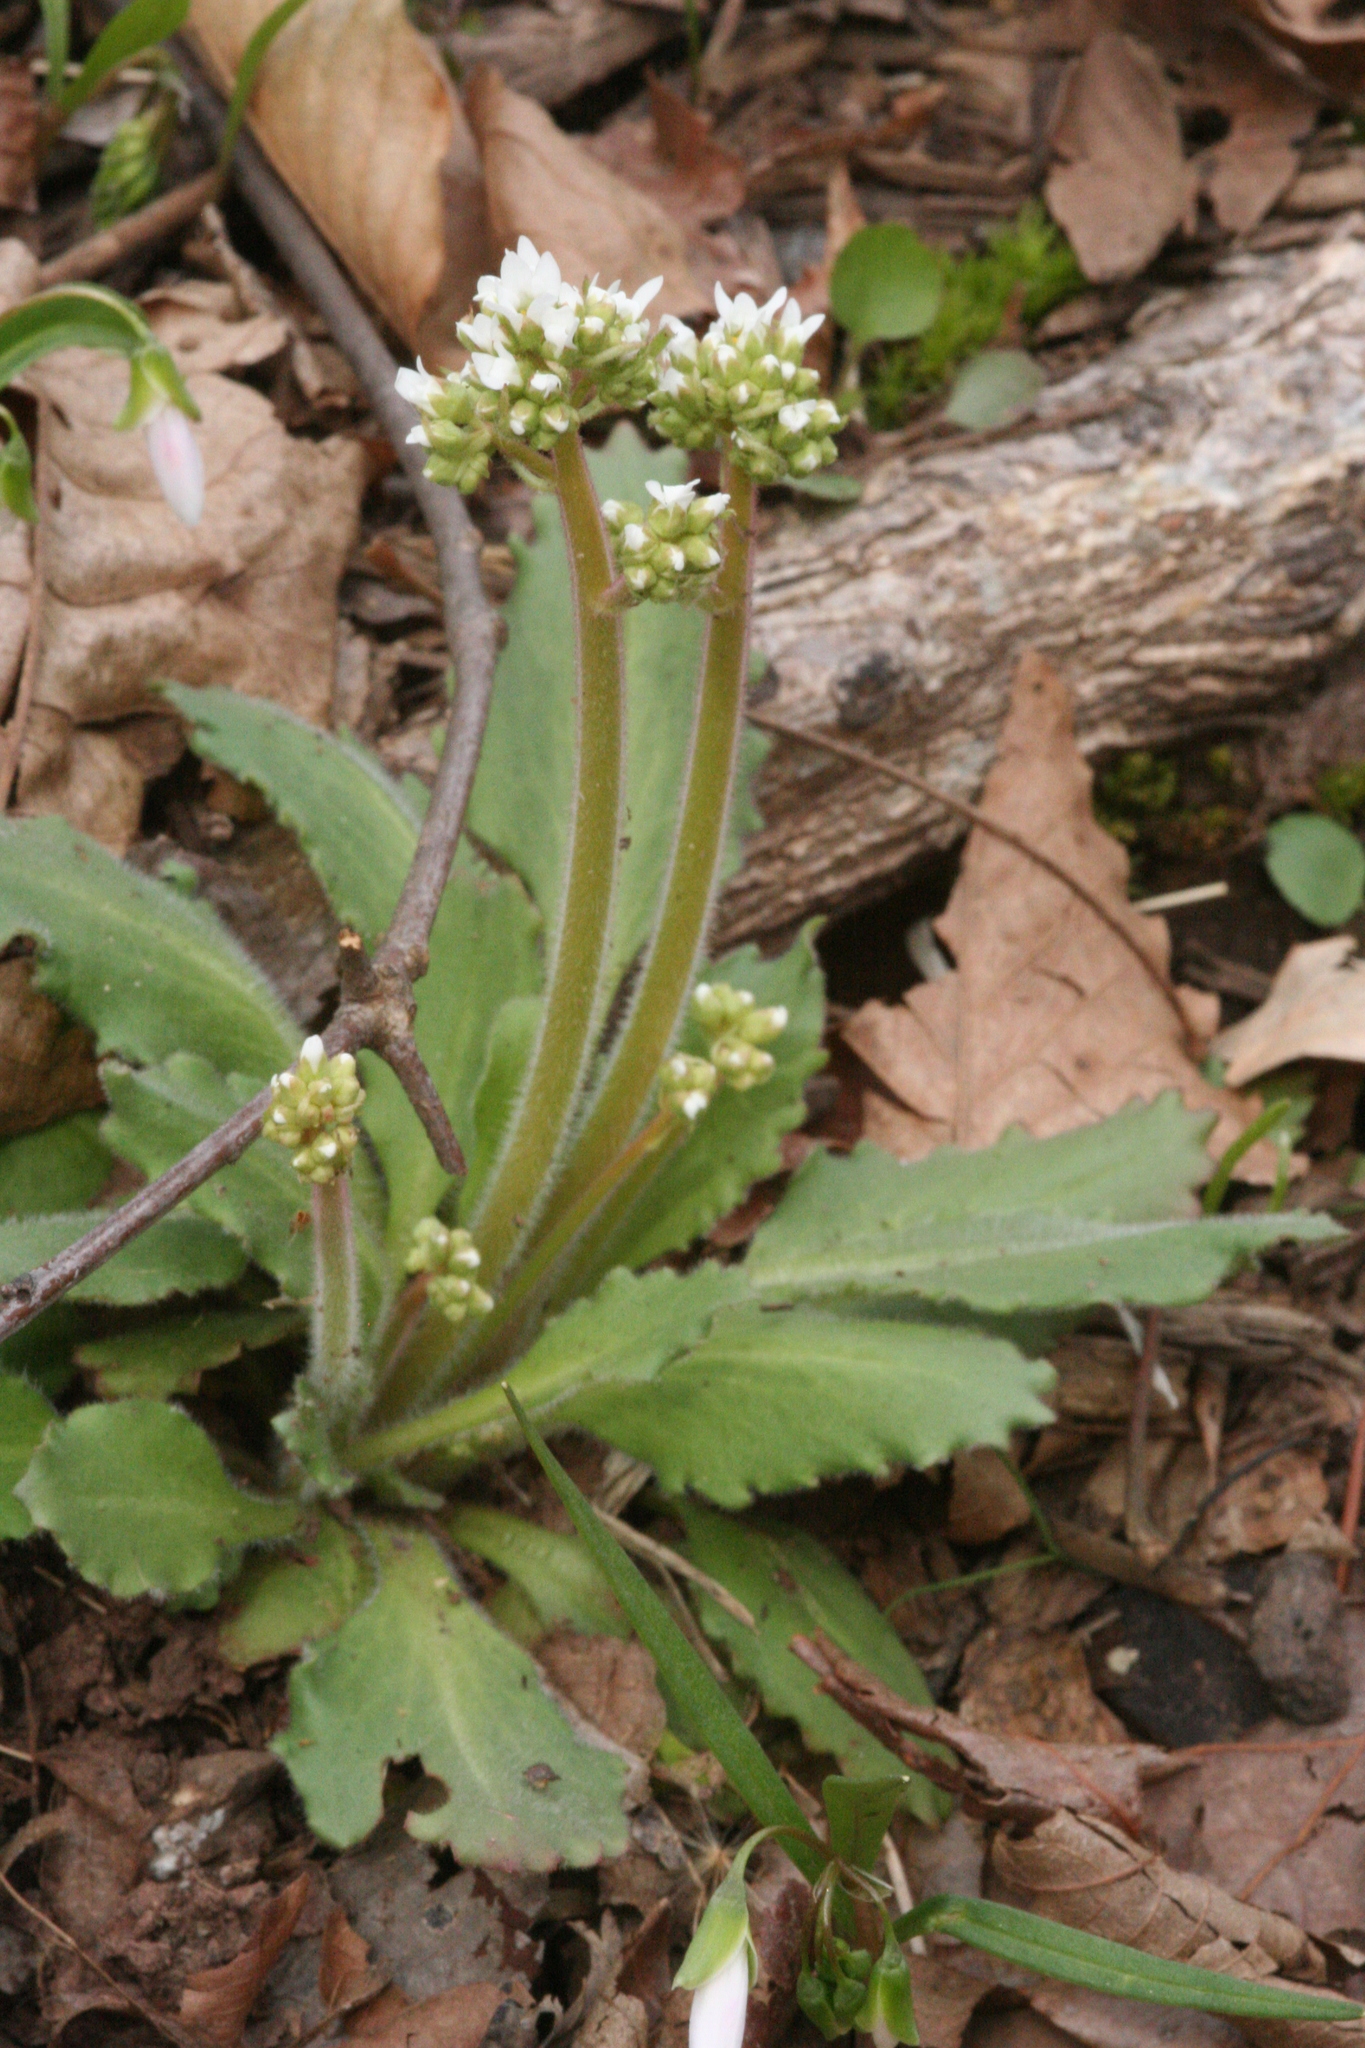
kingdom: Plantae
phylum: Tracheophyta
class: Magnoliopsida
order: Saxifragales
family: Saxifragaceae
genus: Micranthes
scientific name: Micranthes virginiensis
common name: Early saxifrage
